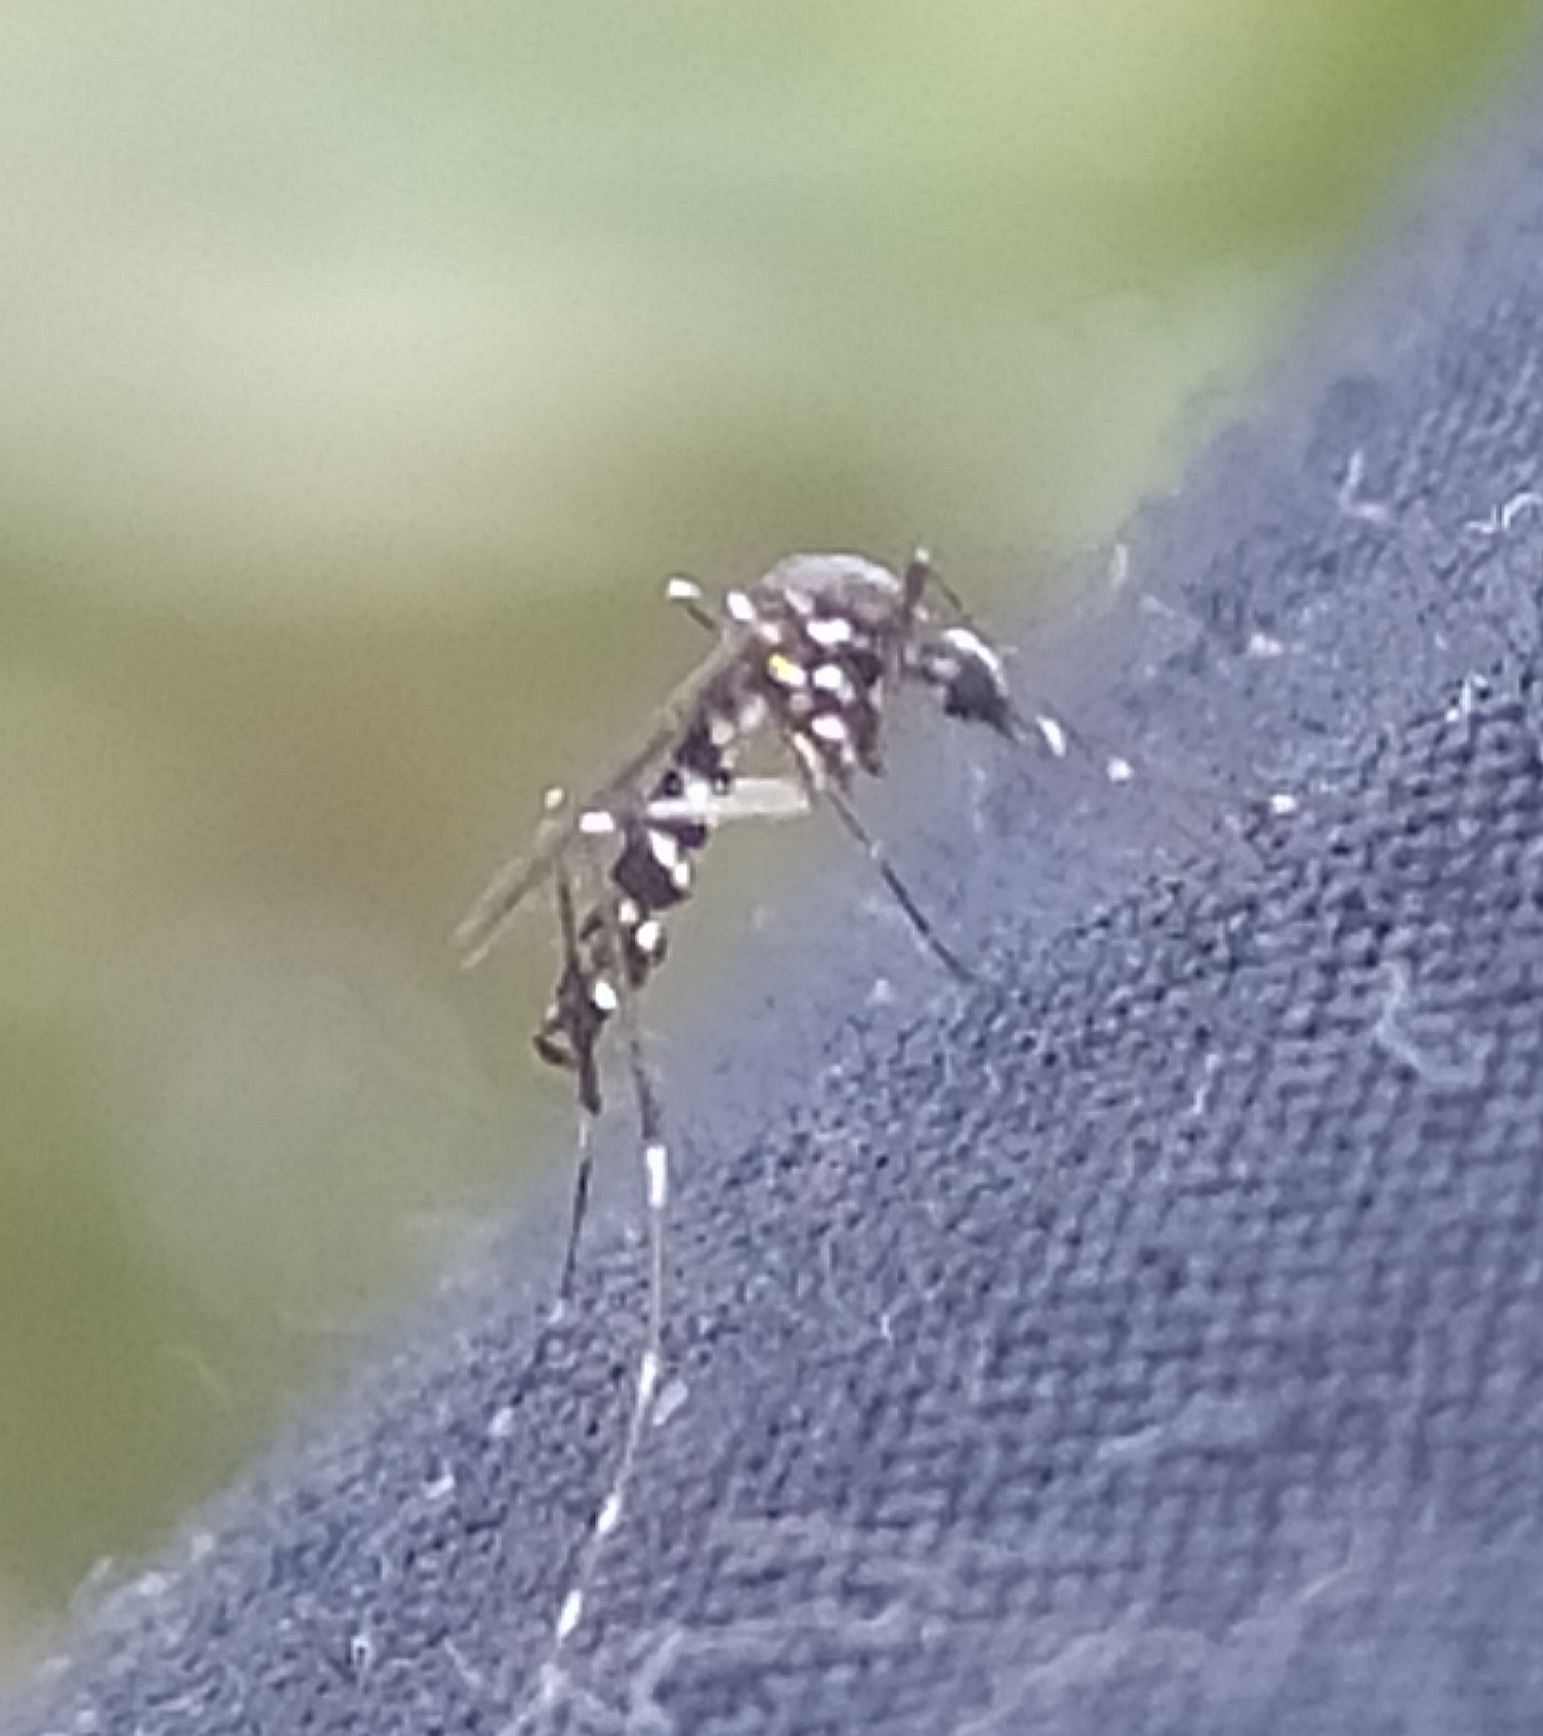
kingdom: Animalia
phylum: Arthropoda
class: Insecta
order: Diptera
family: Culicidae
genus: Aedes
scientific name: Aedes albopictus
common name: Tiger mosquito
